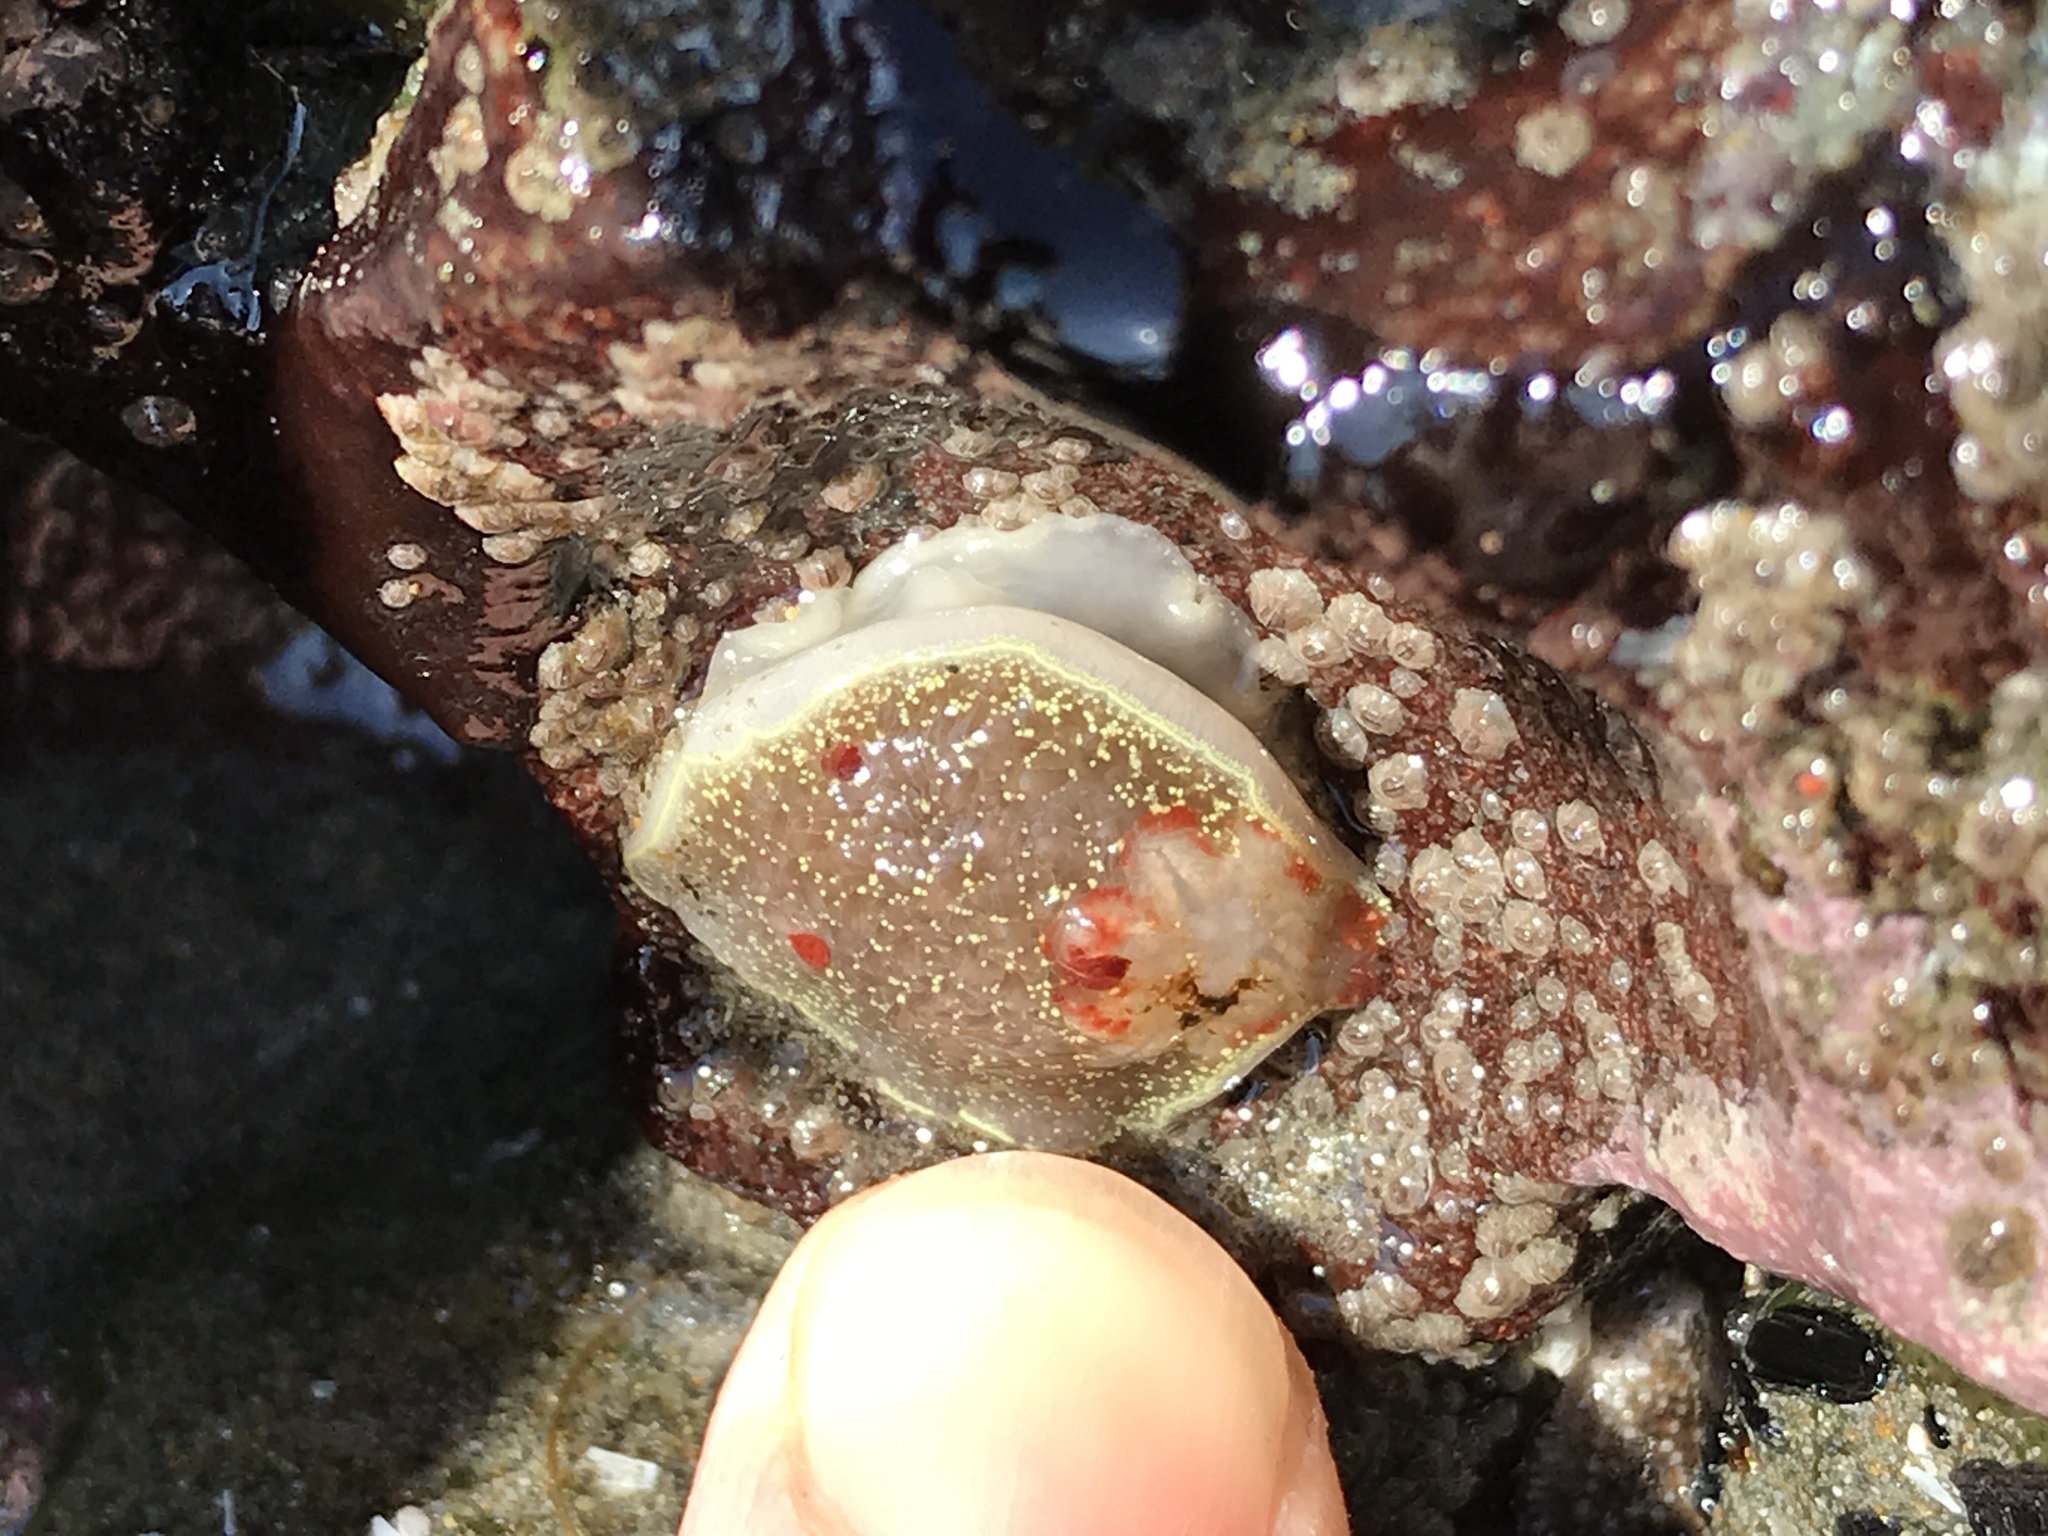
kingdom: Animalia
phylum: Mollusca
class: Gastropoda
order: Nudibranchia
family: Onchidorididae
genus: Acanthodoris
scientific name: Acanthodoris nanaimoensis
